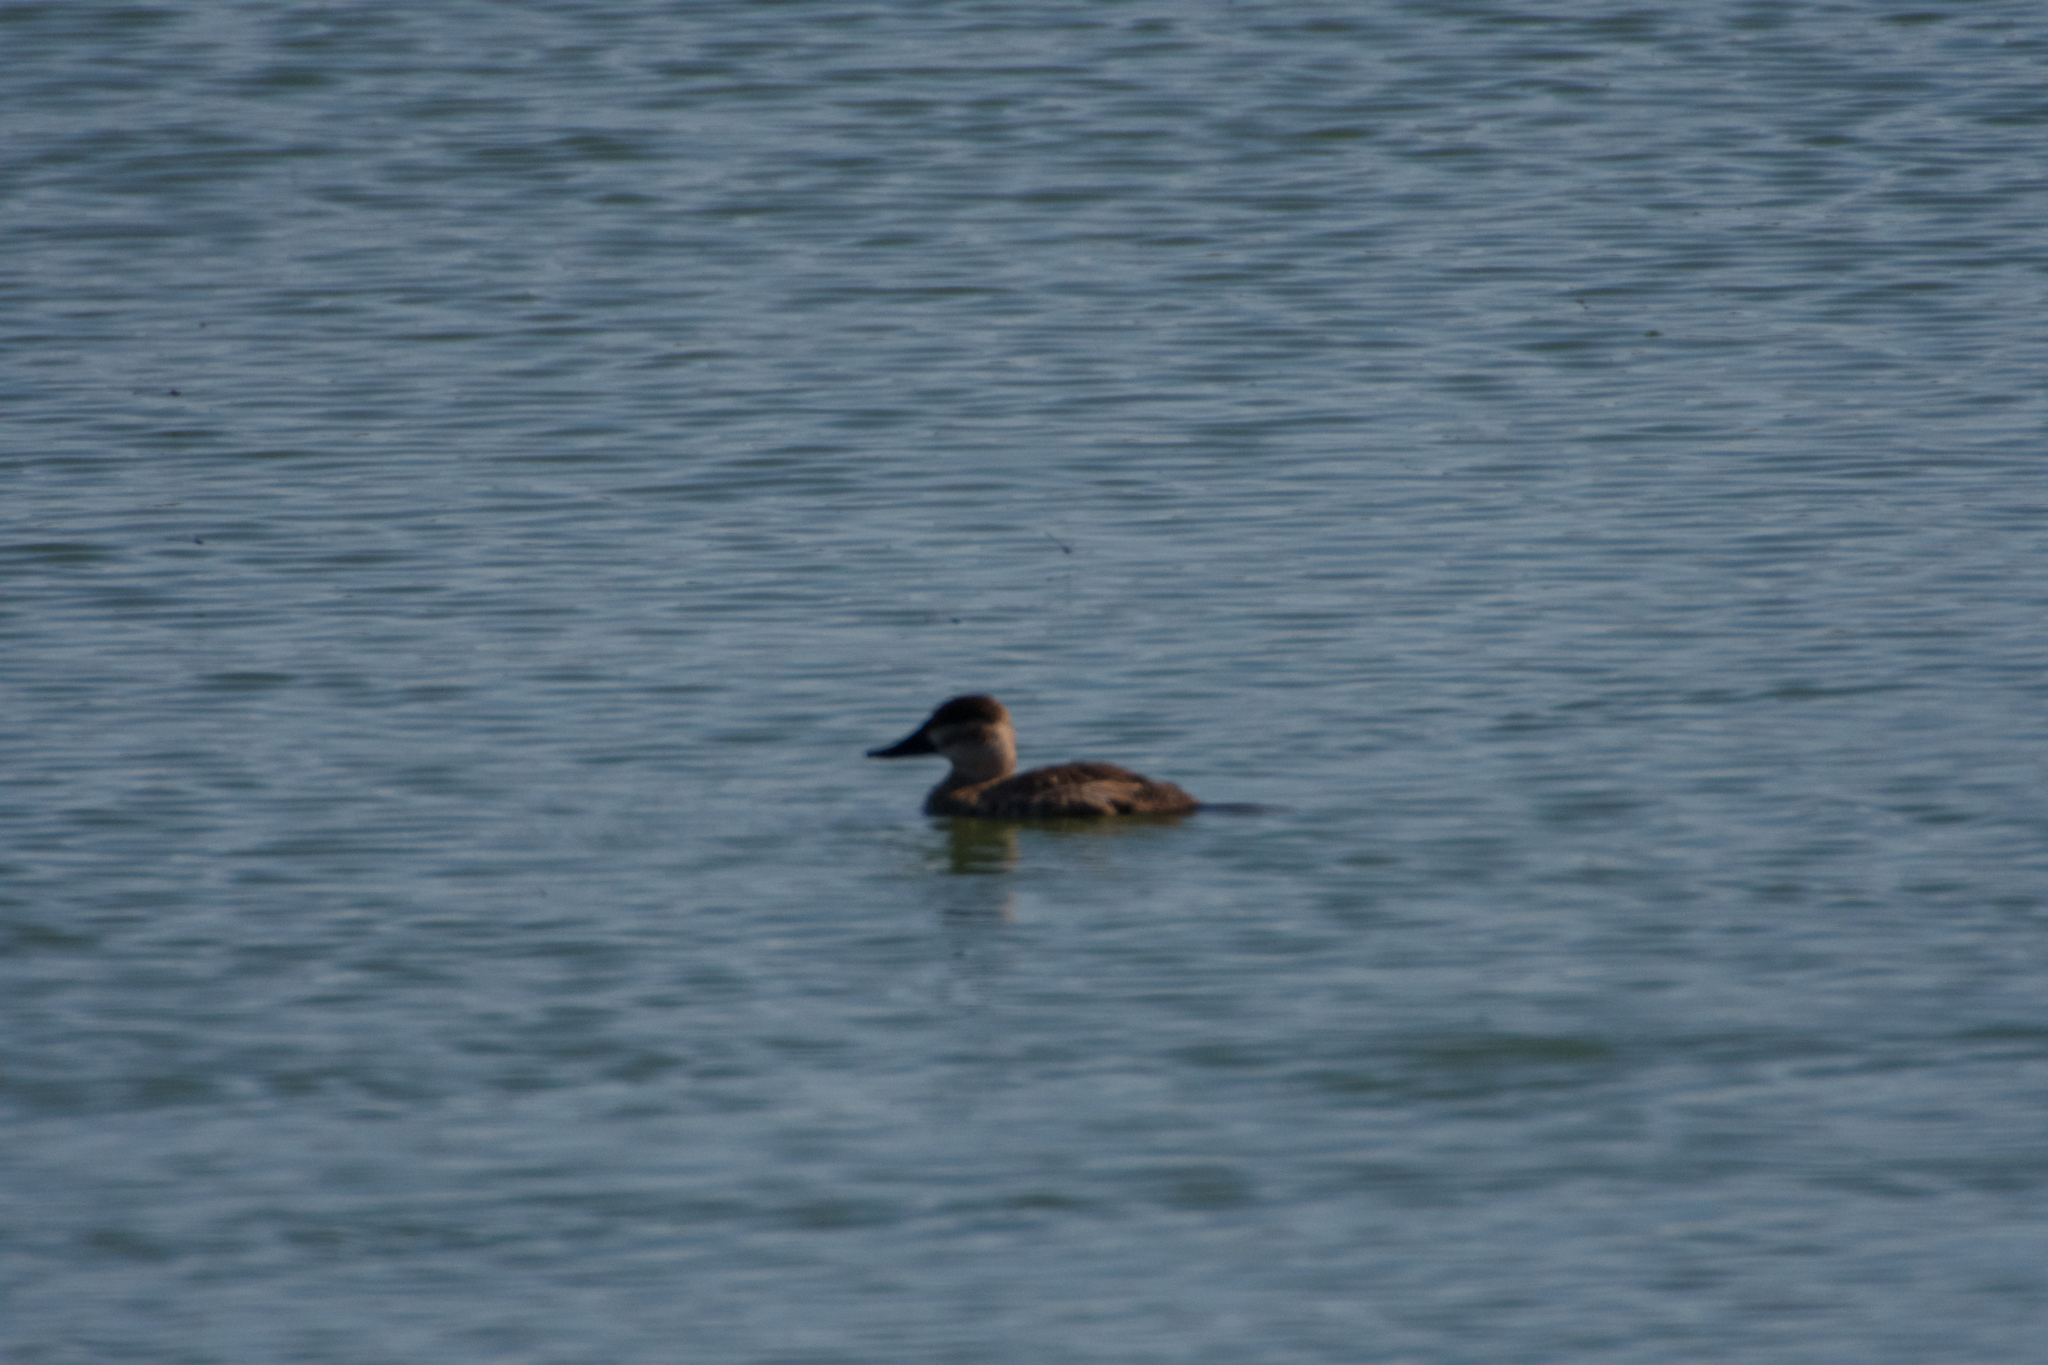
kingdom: Animalia
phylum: Chordata
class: Aves
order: Anseriformes
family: Anatidae
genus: Oxyura
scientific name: Oxyura jamaicensis
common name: Ruddy duck
